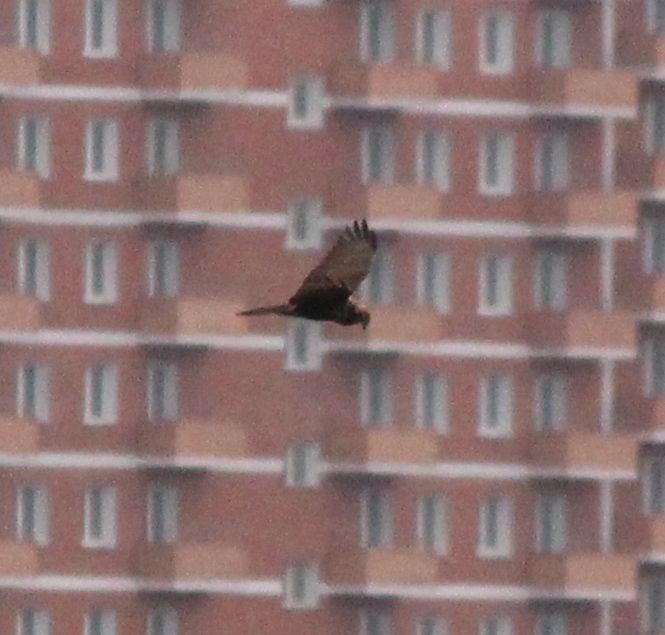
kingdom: Animalia
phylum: Chordata
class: Aves
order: Accipitriformes
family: Accipitridae
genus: Circus
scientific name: Circus spilonotus
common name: Eastern marsh-harrier
